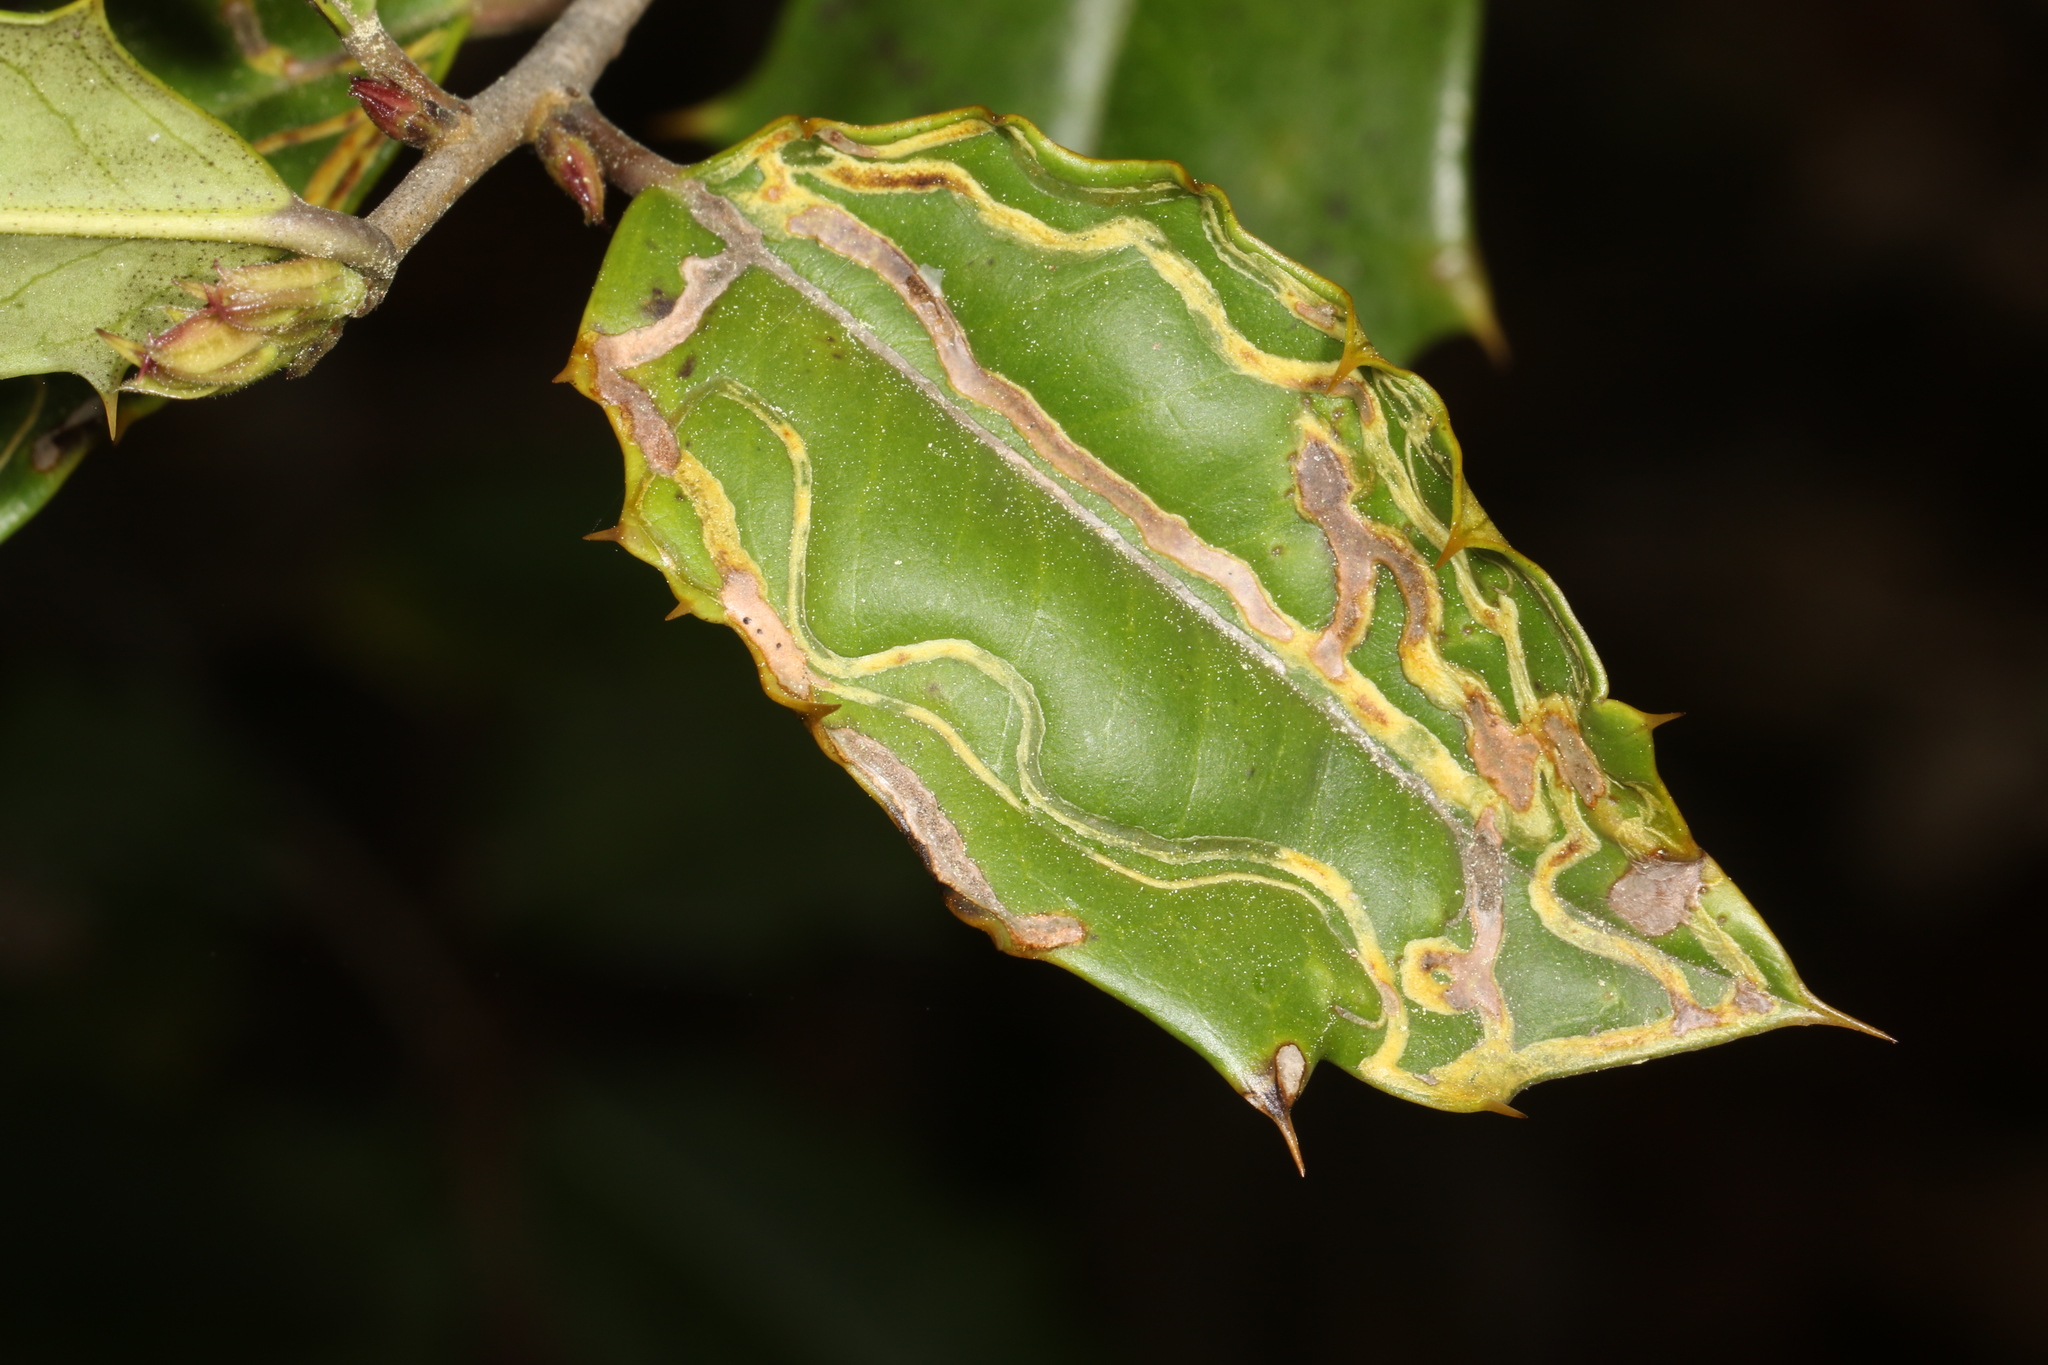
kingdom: Animalia
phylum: Arthropoda
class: Insecta
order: Diptera
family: Agromyzidae
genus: Phytomyza
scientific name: Phytomyza opacae
